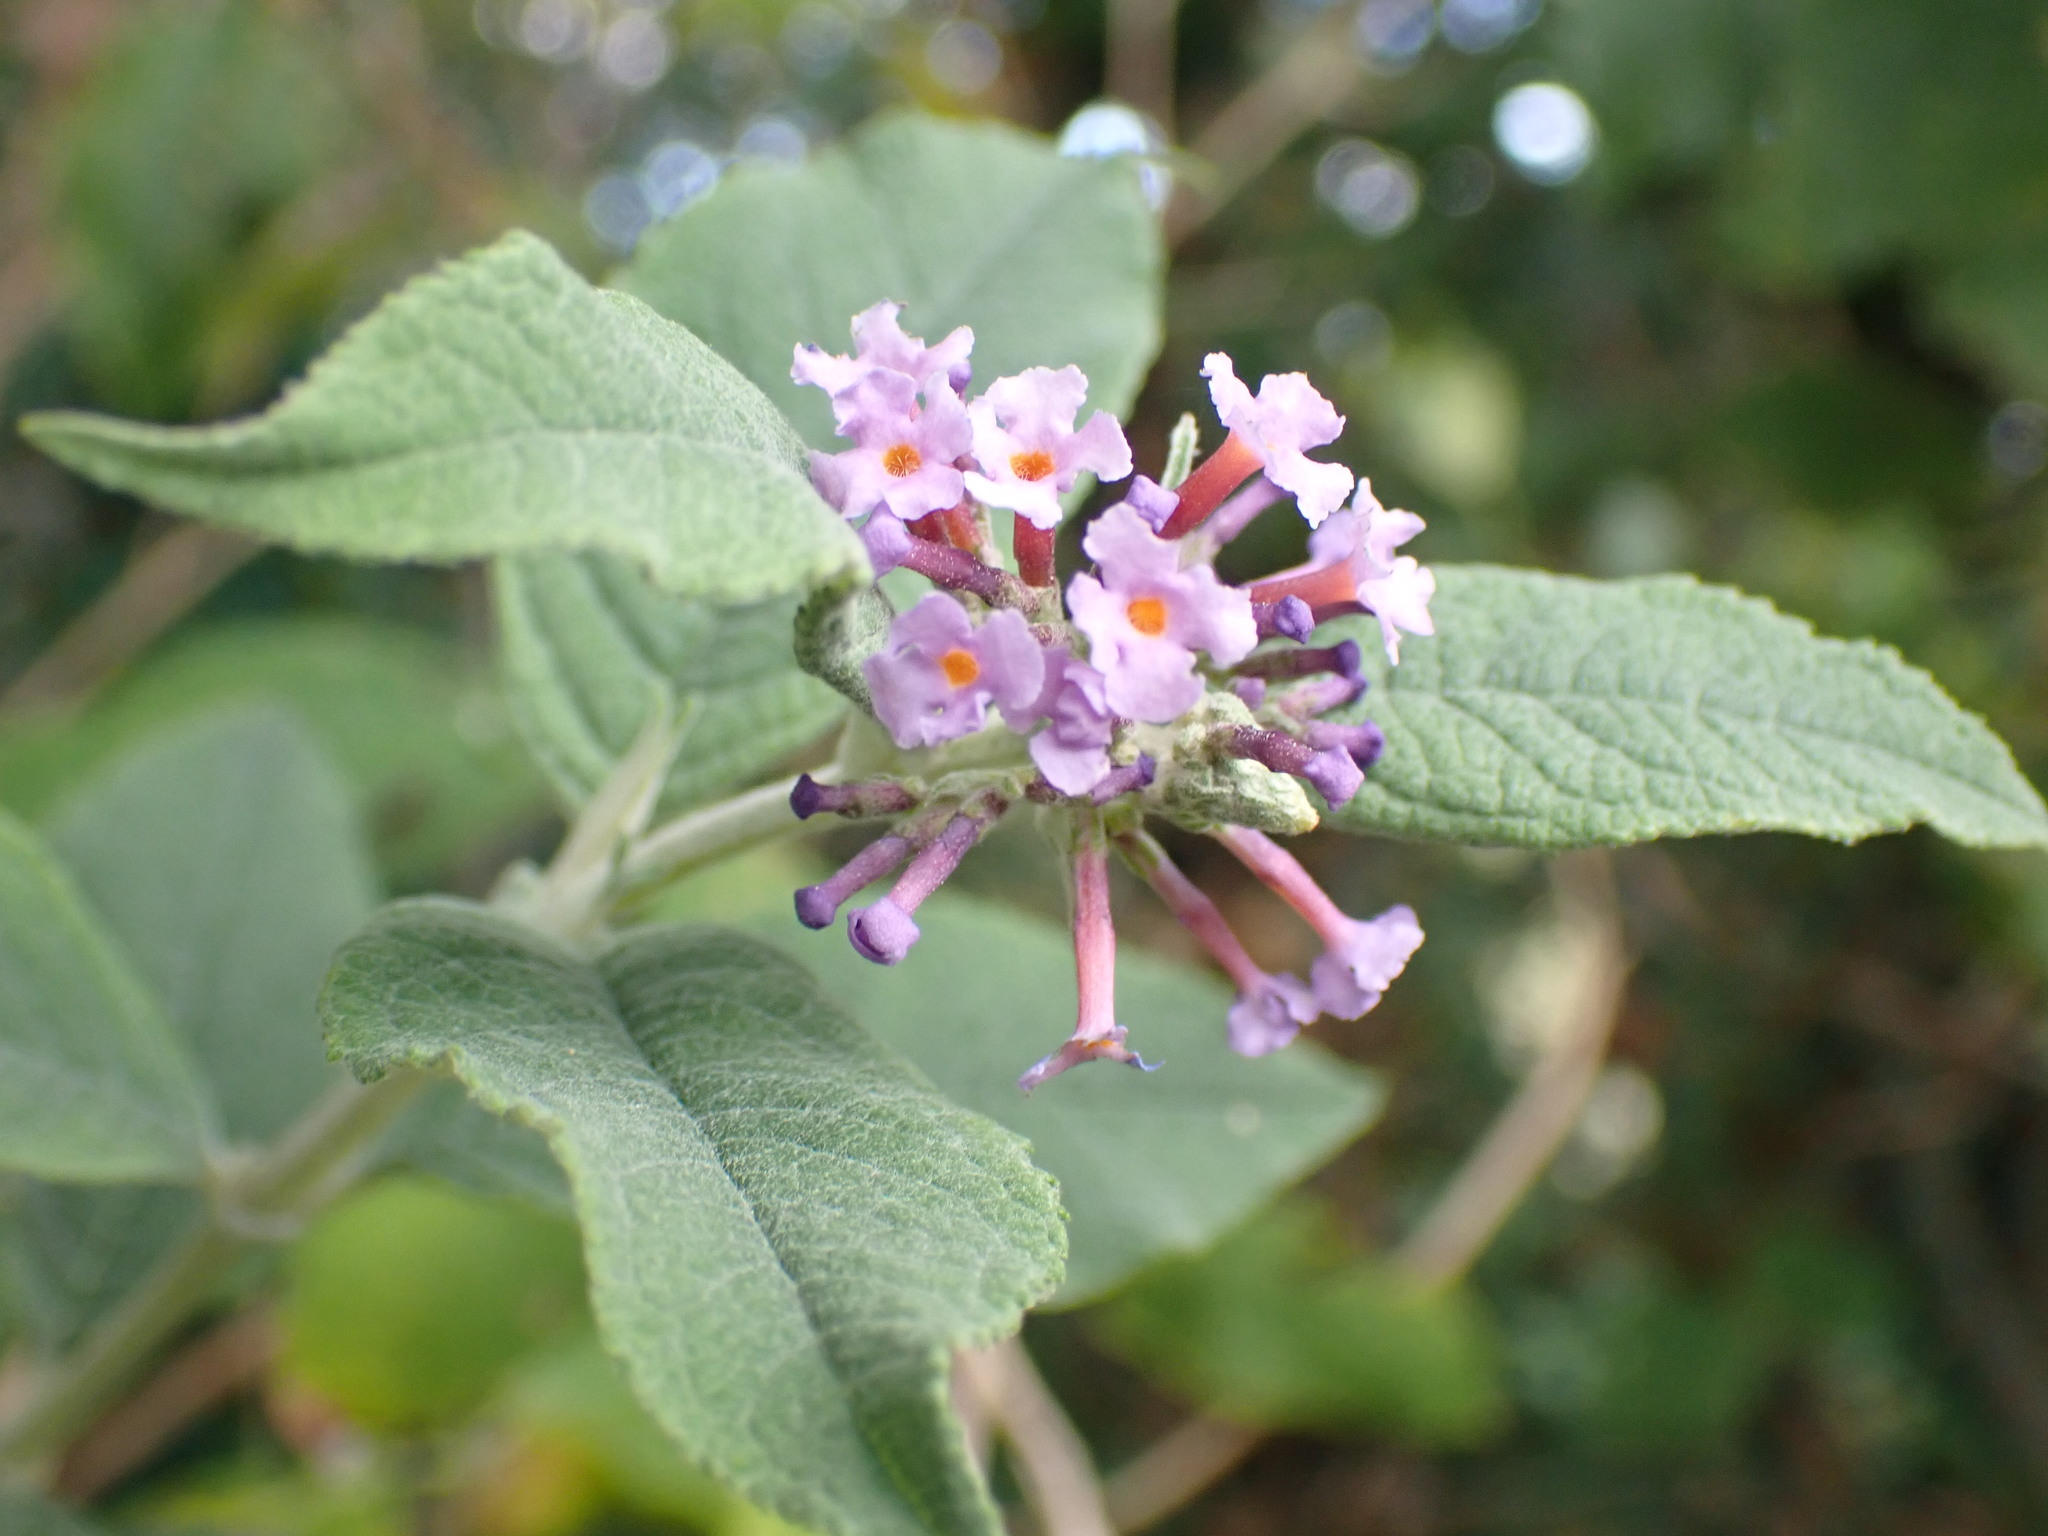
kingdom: Plantae
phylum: Tracheophyta
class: Magnoliopsida
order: Lamiales
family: Scrophulariaceae
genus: Buddleja
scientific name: Buddleja davidii
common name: Butterfly-bush
